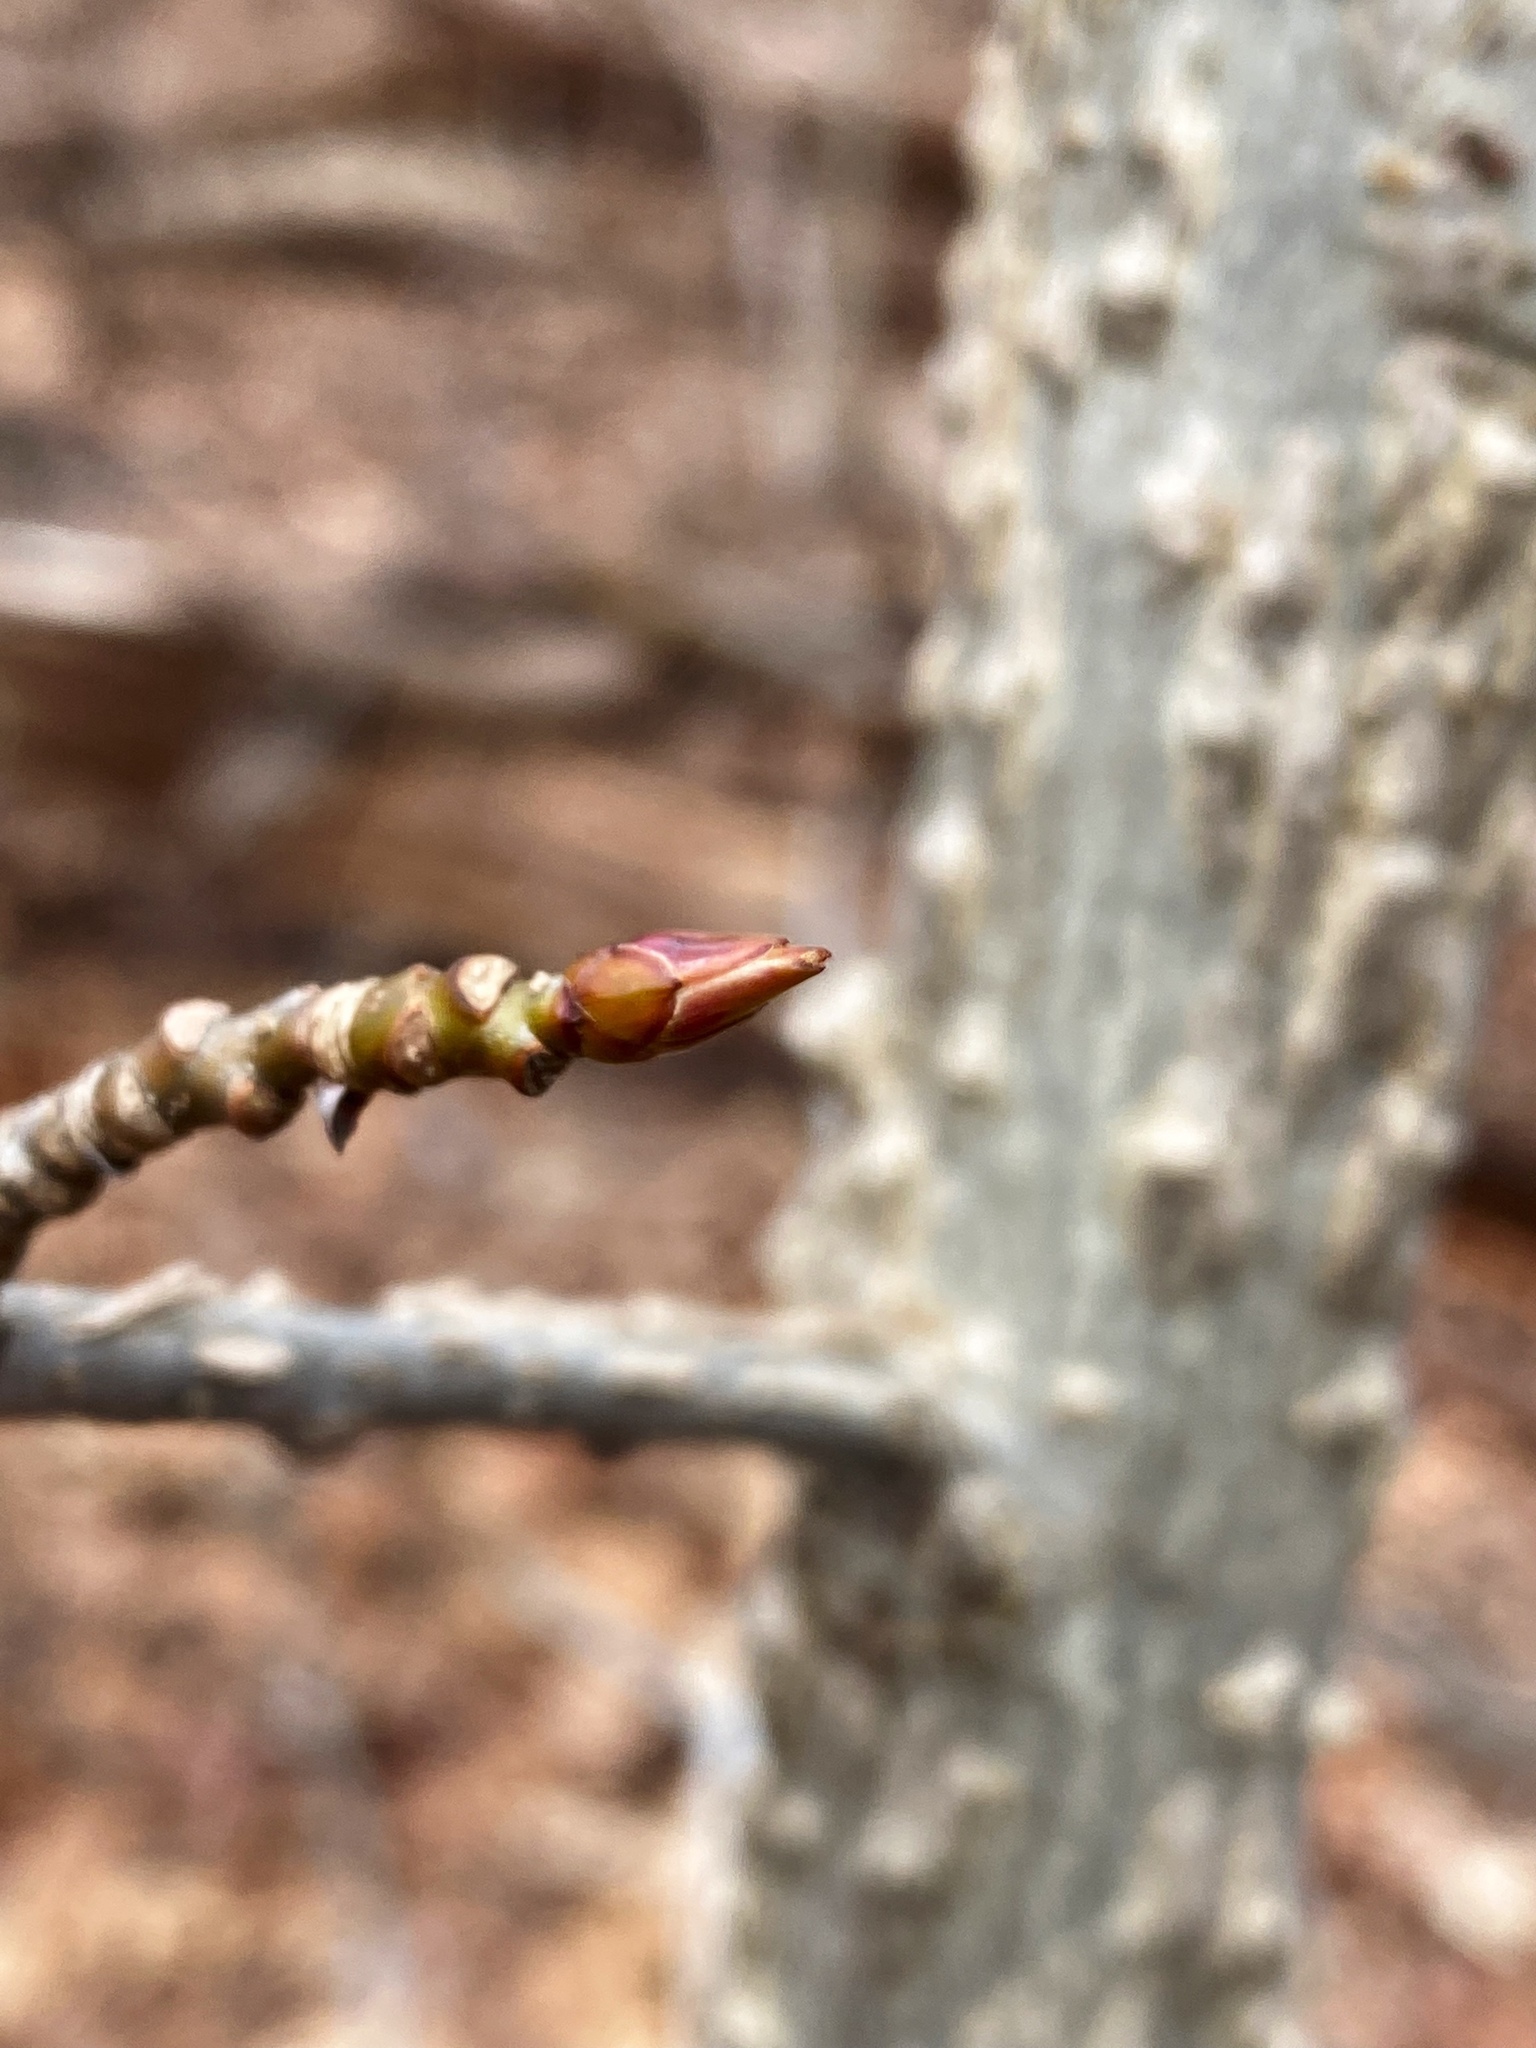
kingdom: Plantae
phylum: Tracheophyta
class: Magnoliopsida
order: Saxifragales
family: Altingiaceae
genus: Liquidambar
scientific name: Liquidambar styraciflua
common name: Sweet gum
